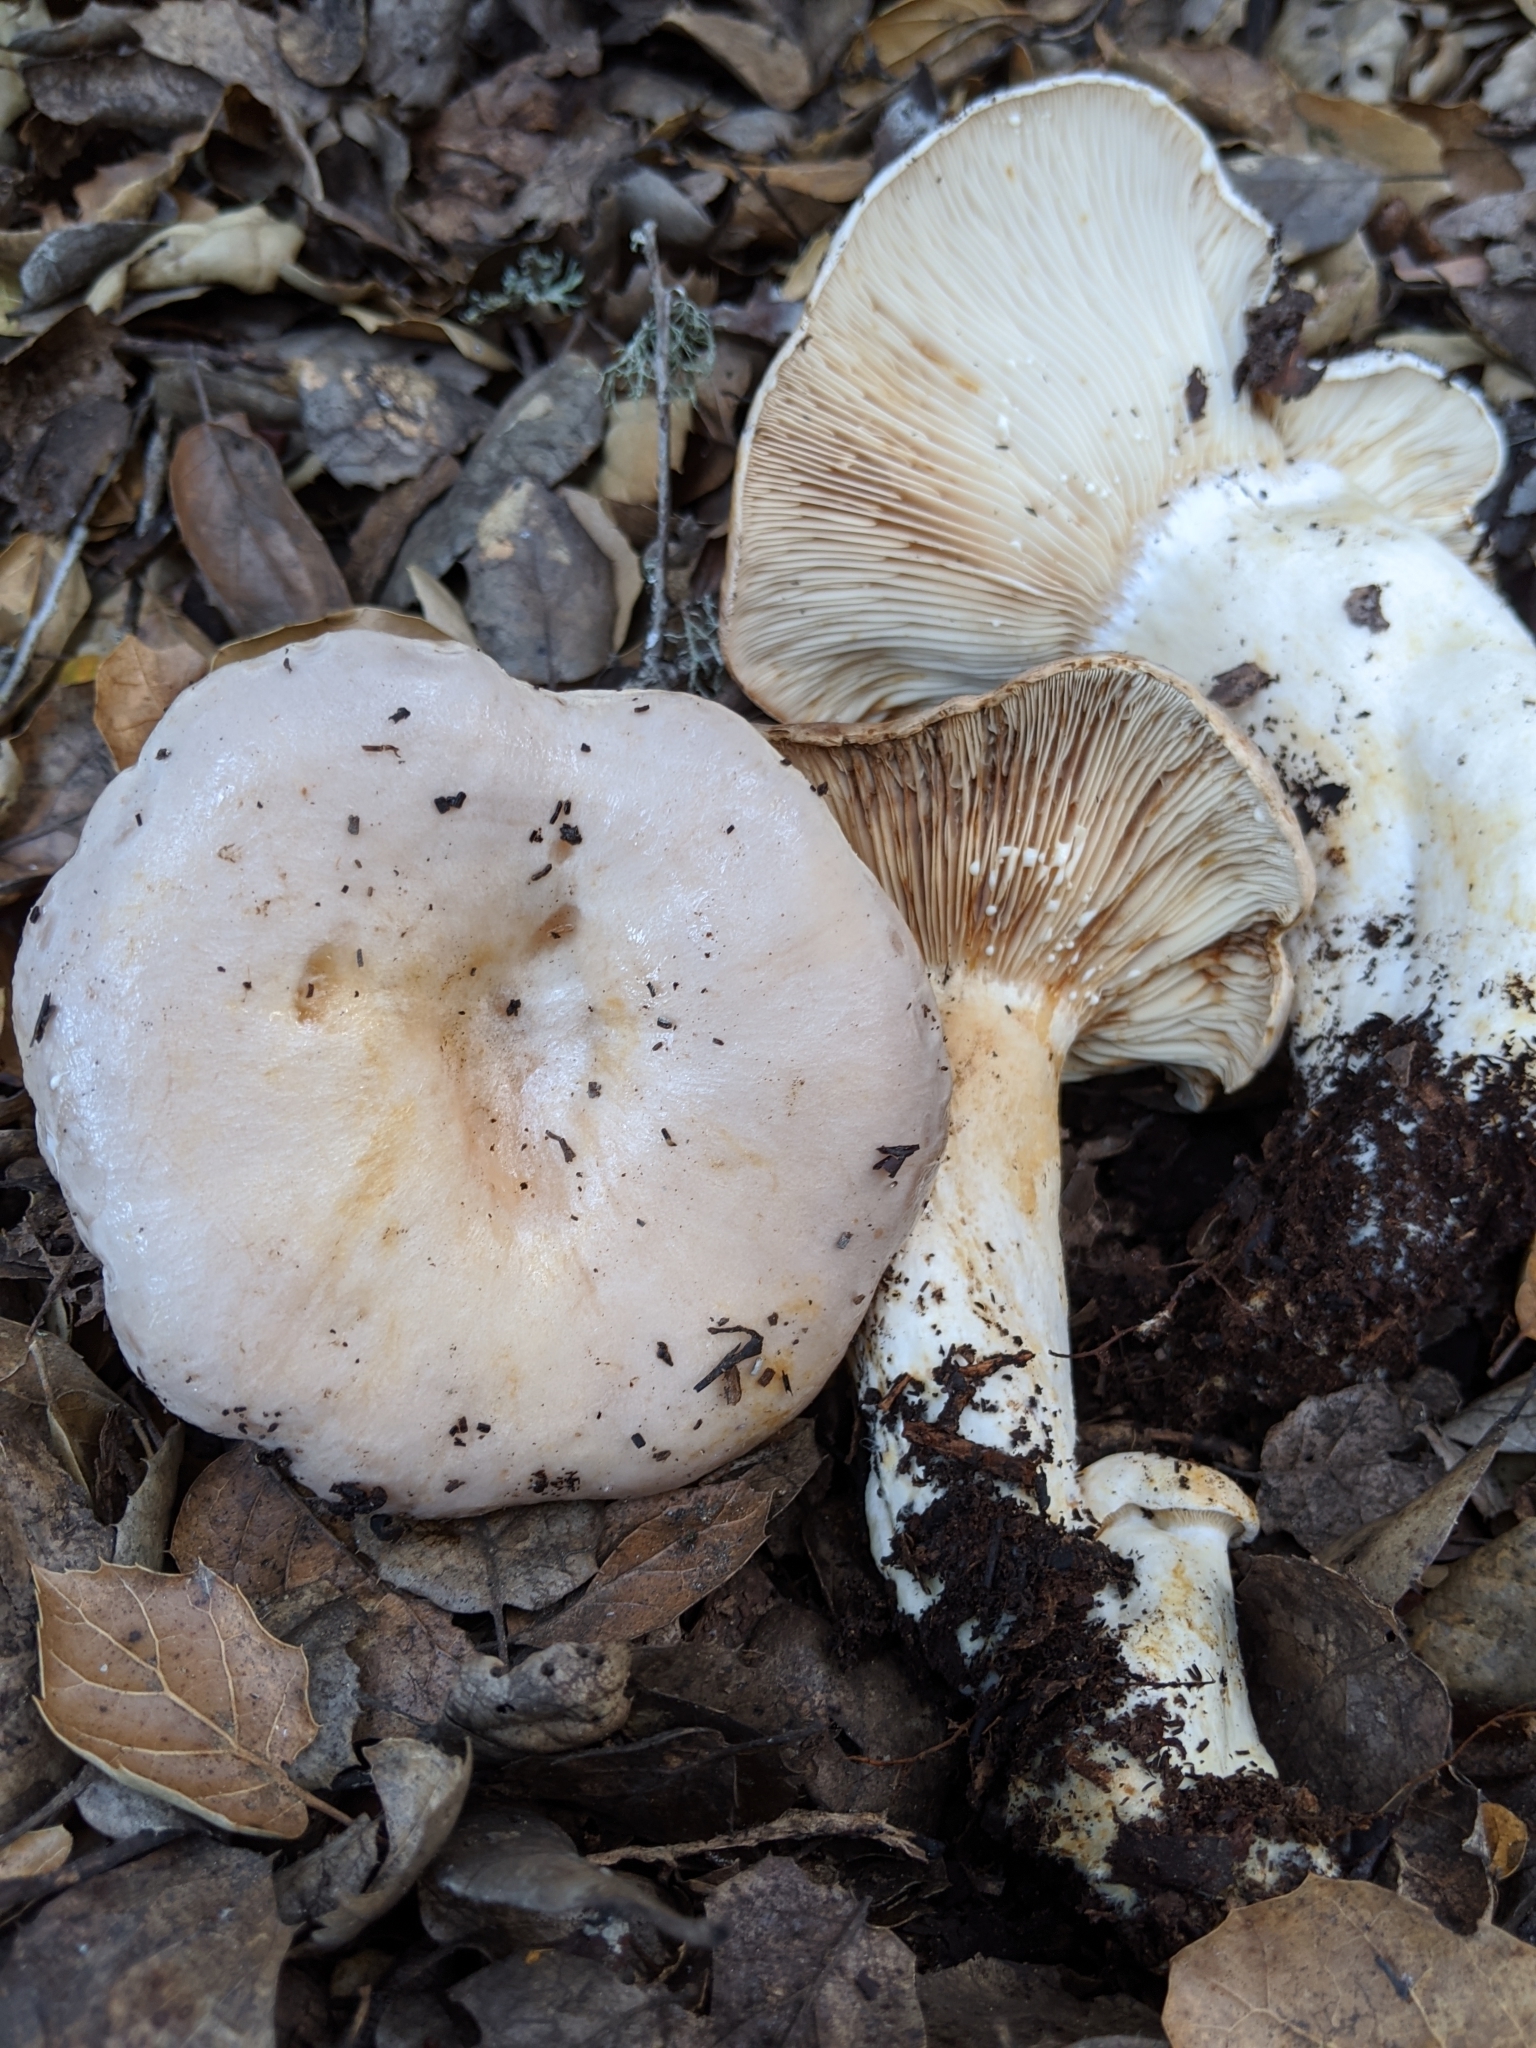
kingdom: Fungi
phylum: Basidiomycota
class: Agaricomycetes
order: Russulales
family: Russulaceae
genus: Lactarius
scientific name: Lactarius argillaceifolius
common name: Clay-gilled milkcap
